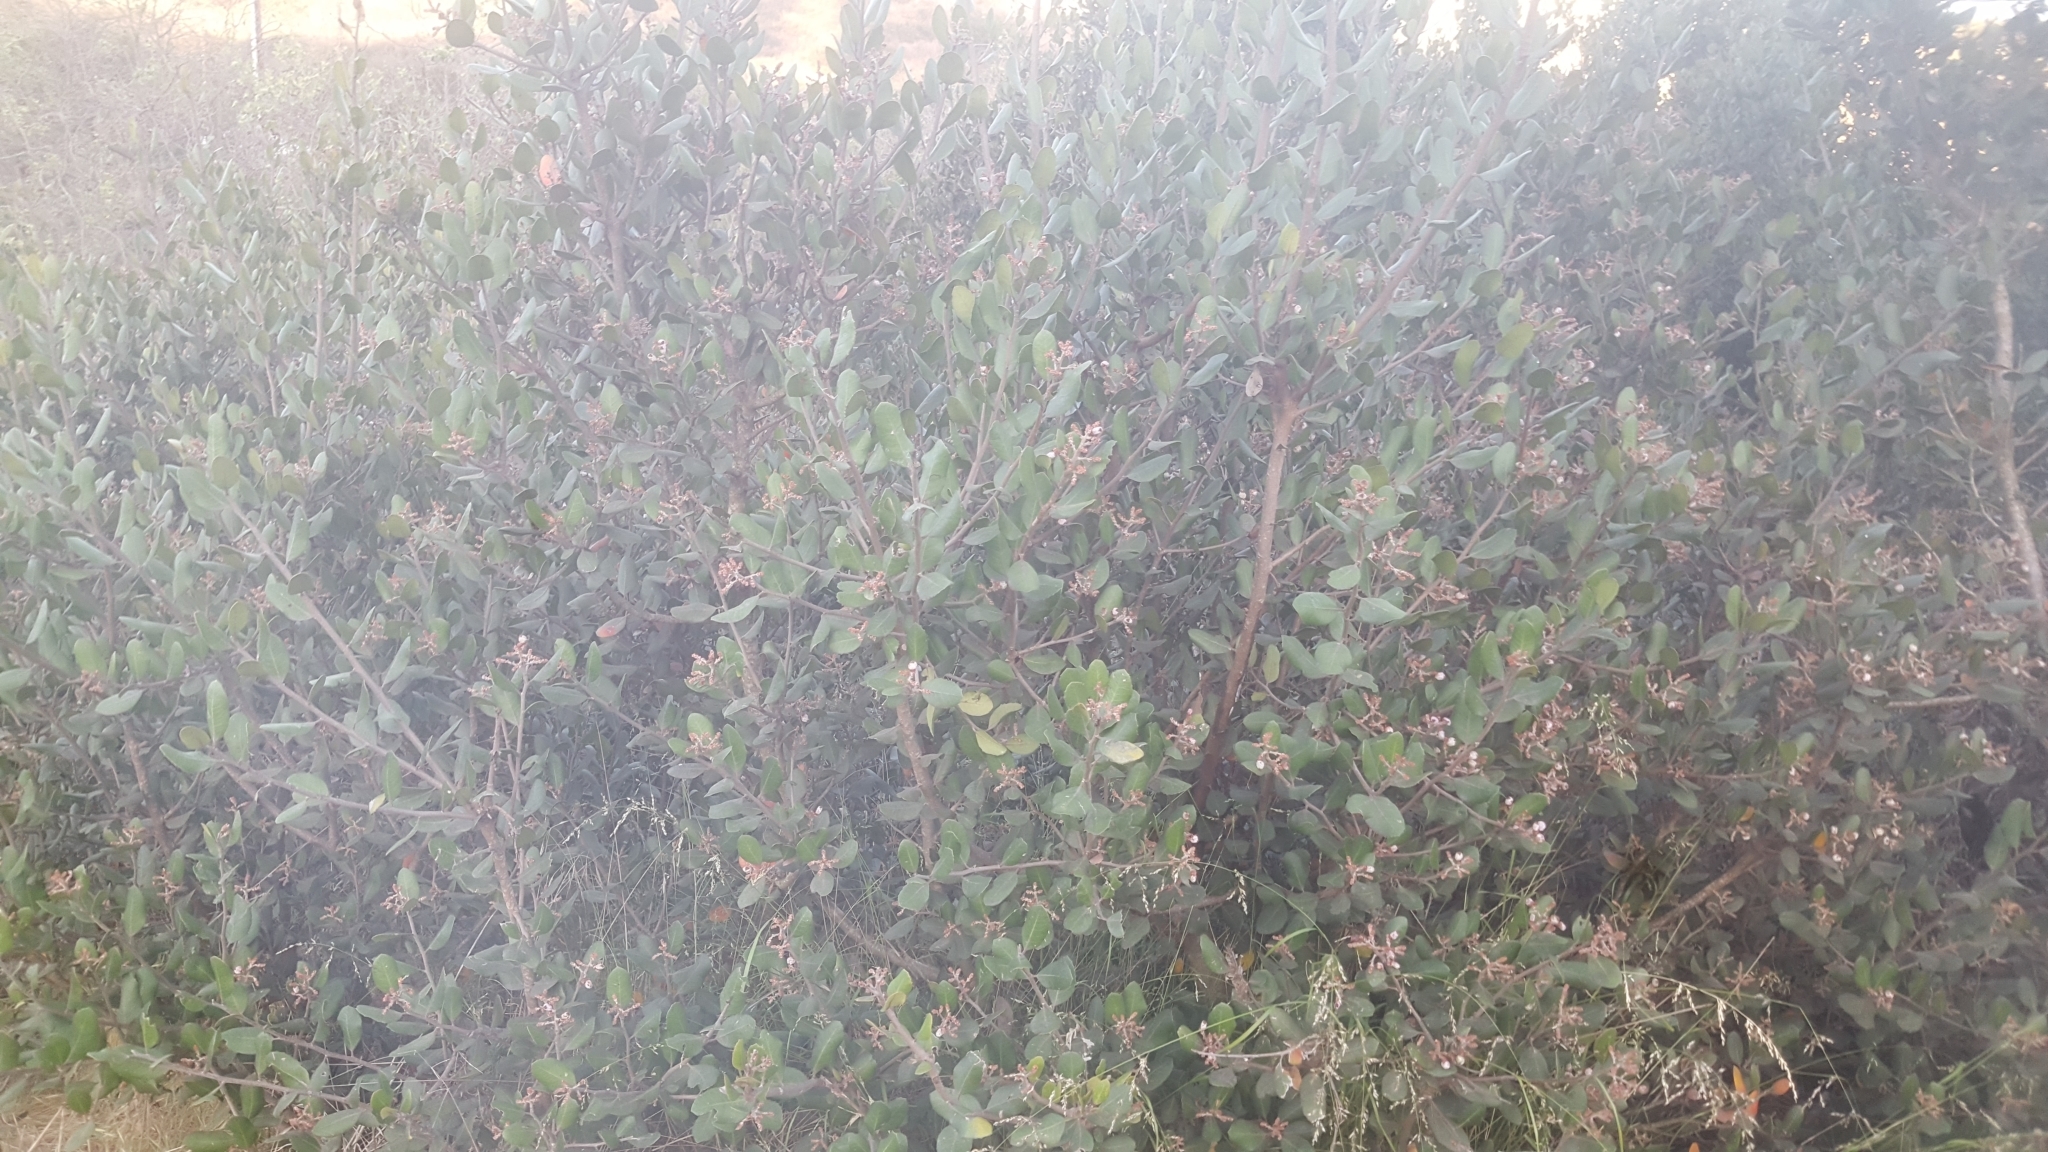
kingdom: Plantae
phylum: Tracheophyta
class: Magnoliopsida
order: Sapindales
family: Anacardiaceae
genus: Rhus
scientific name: Rhus integrifolia
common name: Lemonade sumac
